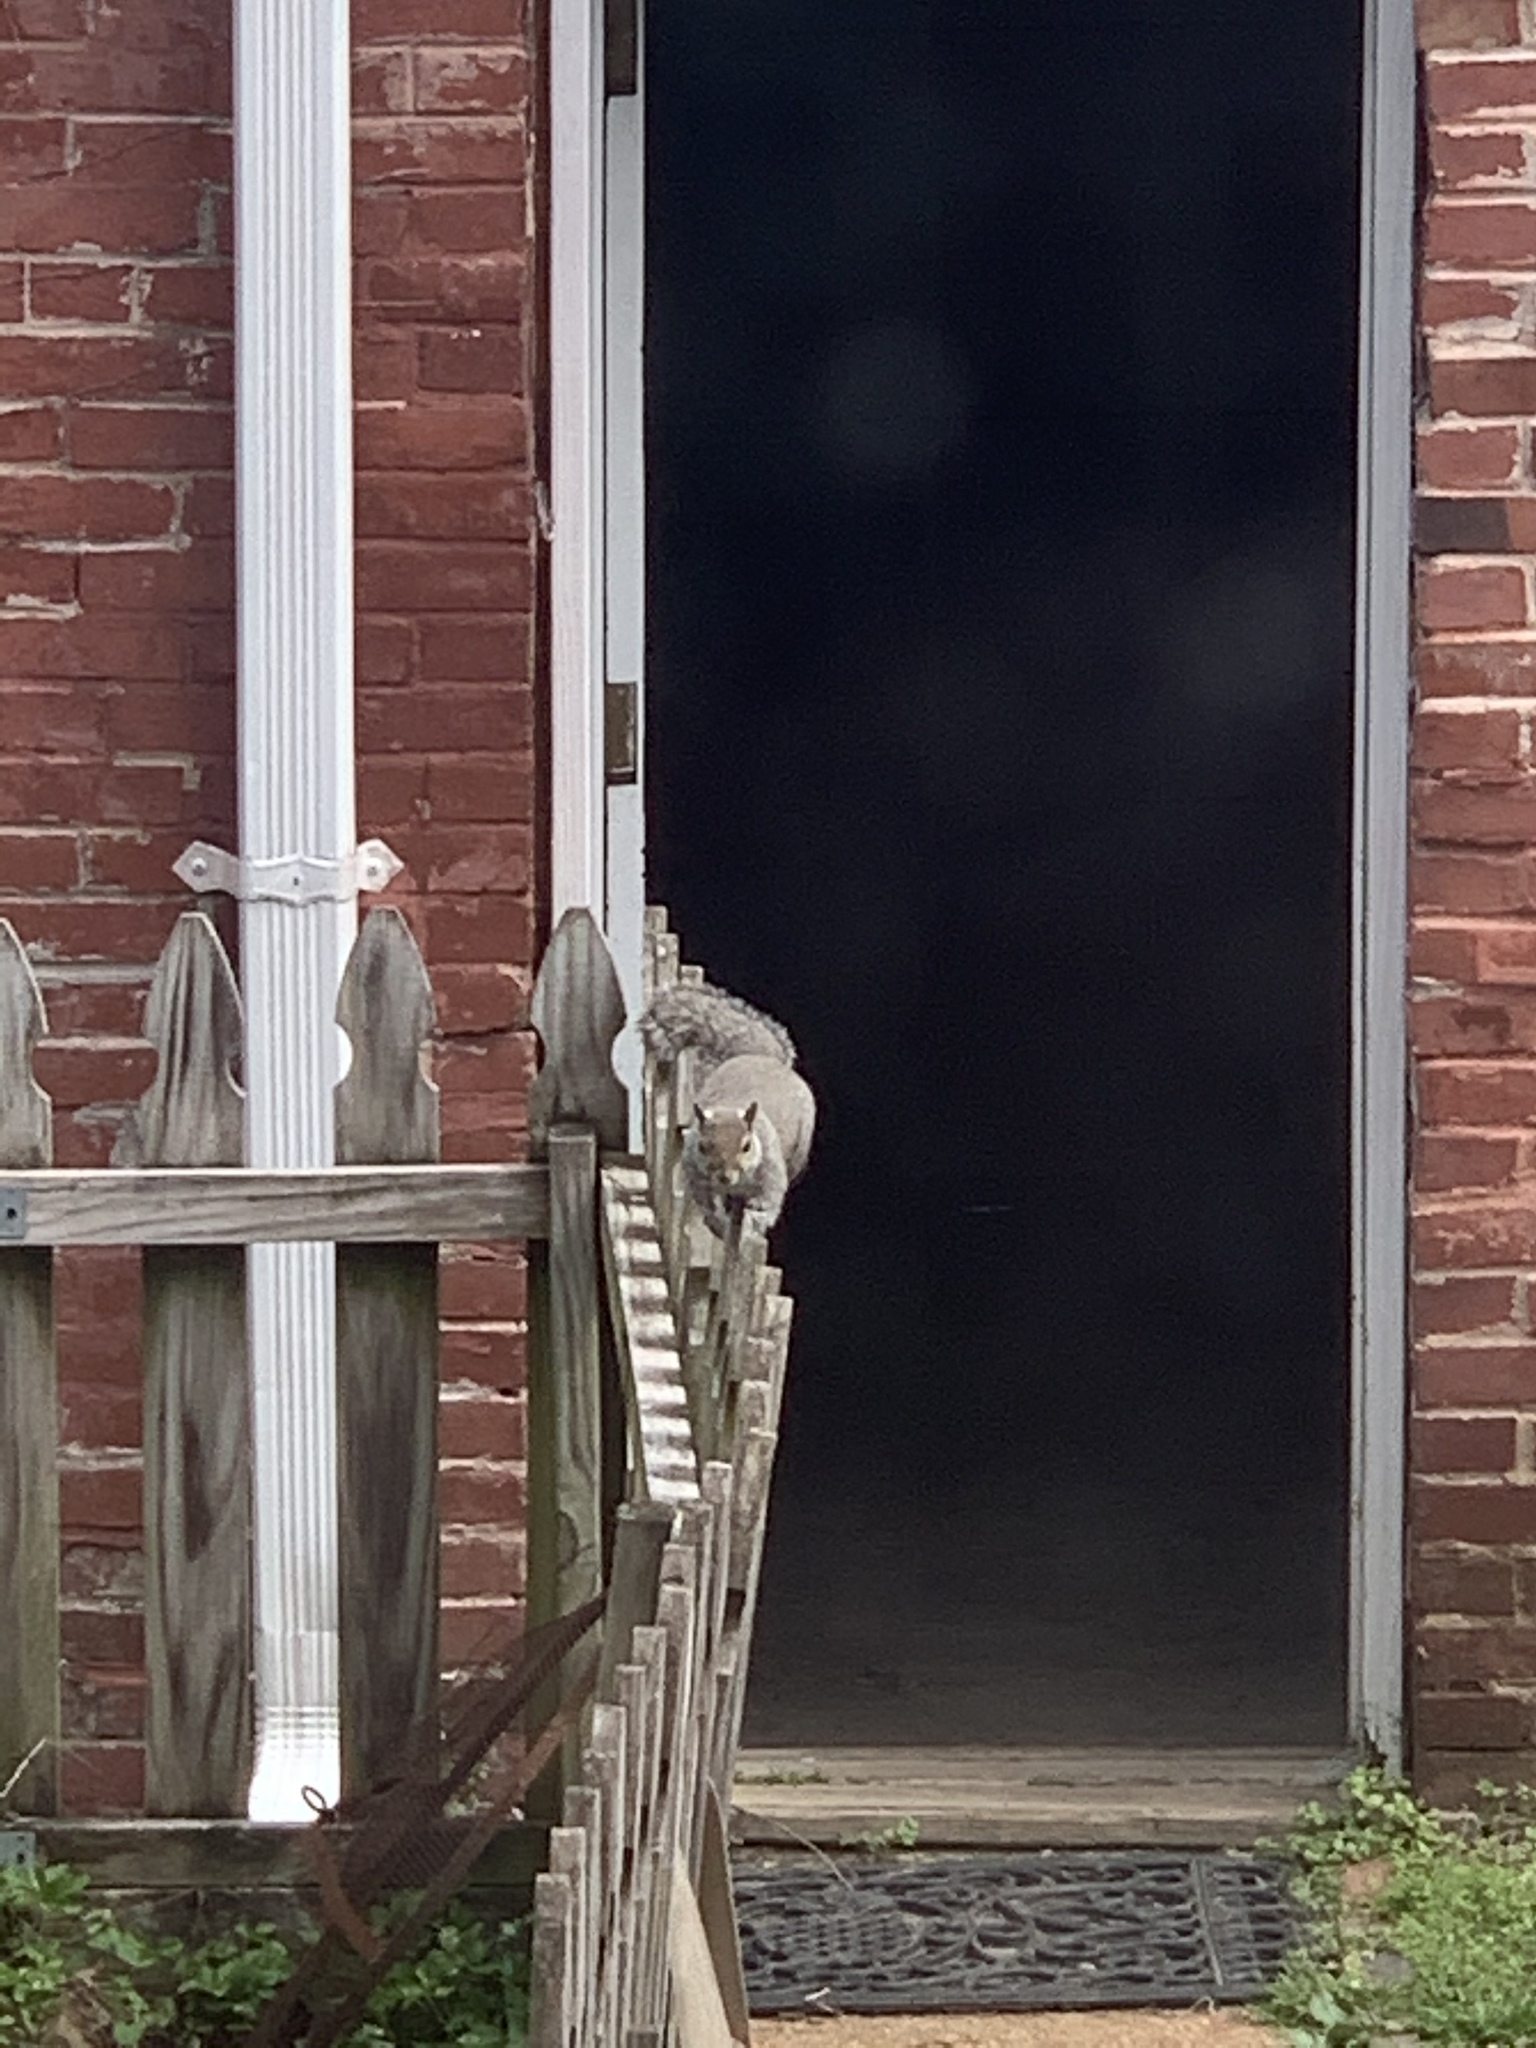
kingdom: Animalia
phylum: Chordata
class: Mammalia
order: Rodentia
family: Sciuridae
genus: Sciurus
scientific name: Sciurus carolinensis
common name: Eastern gray squirrel
